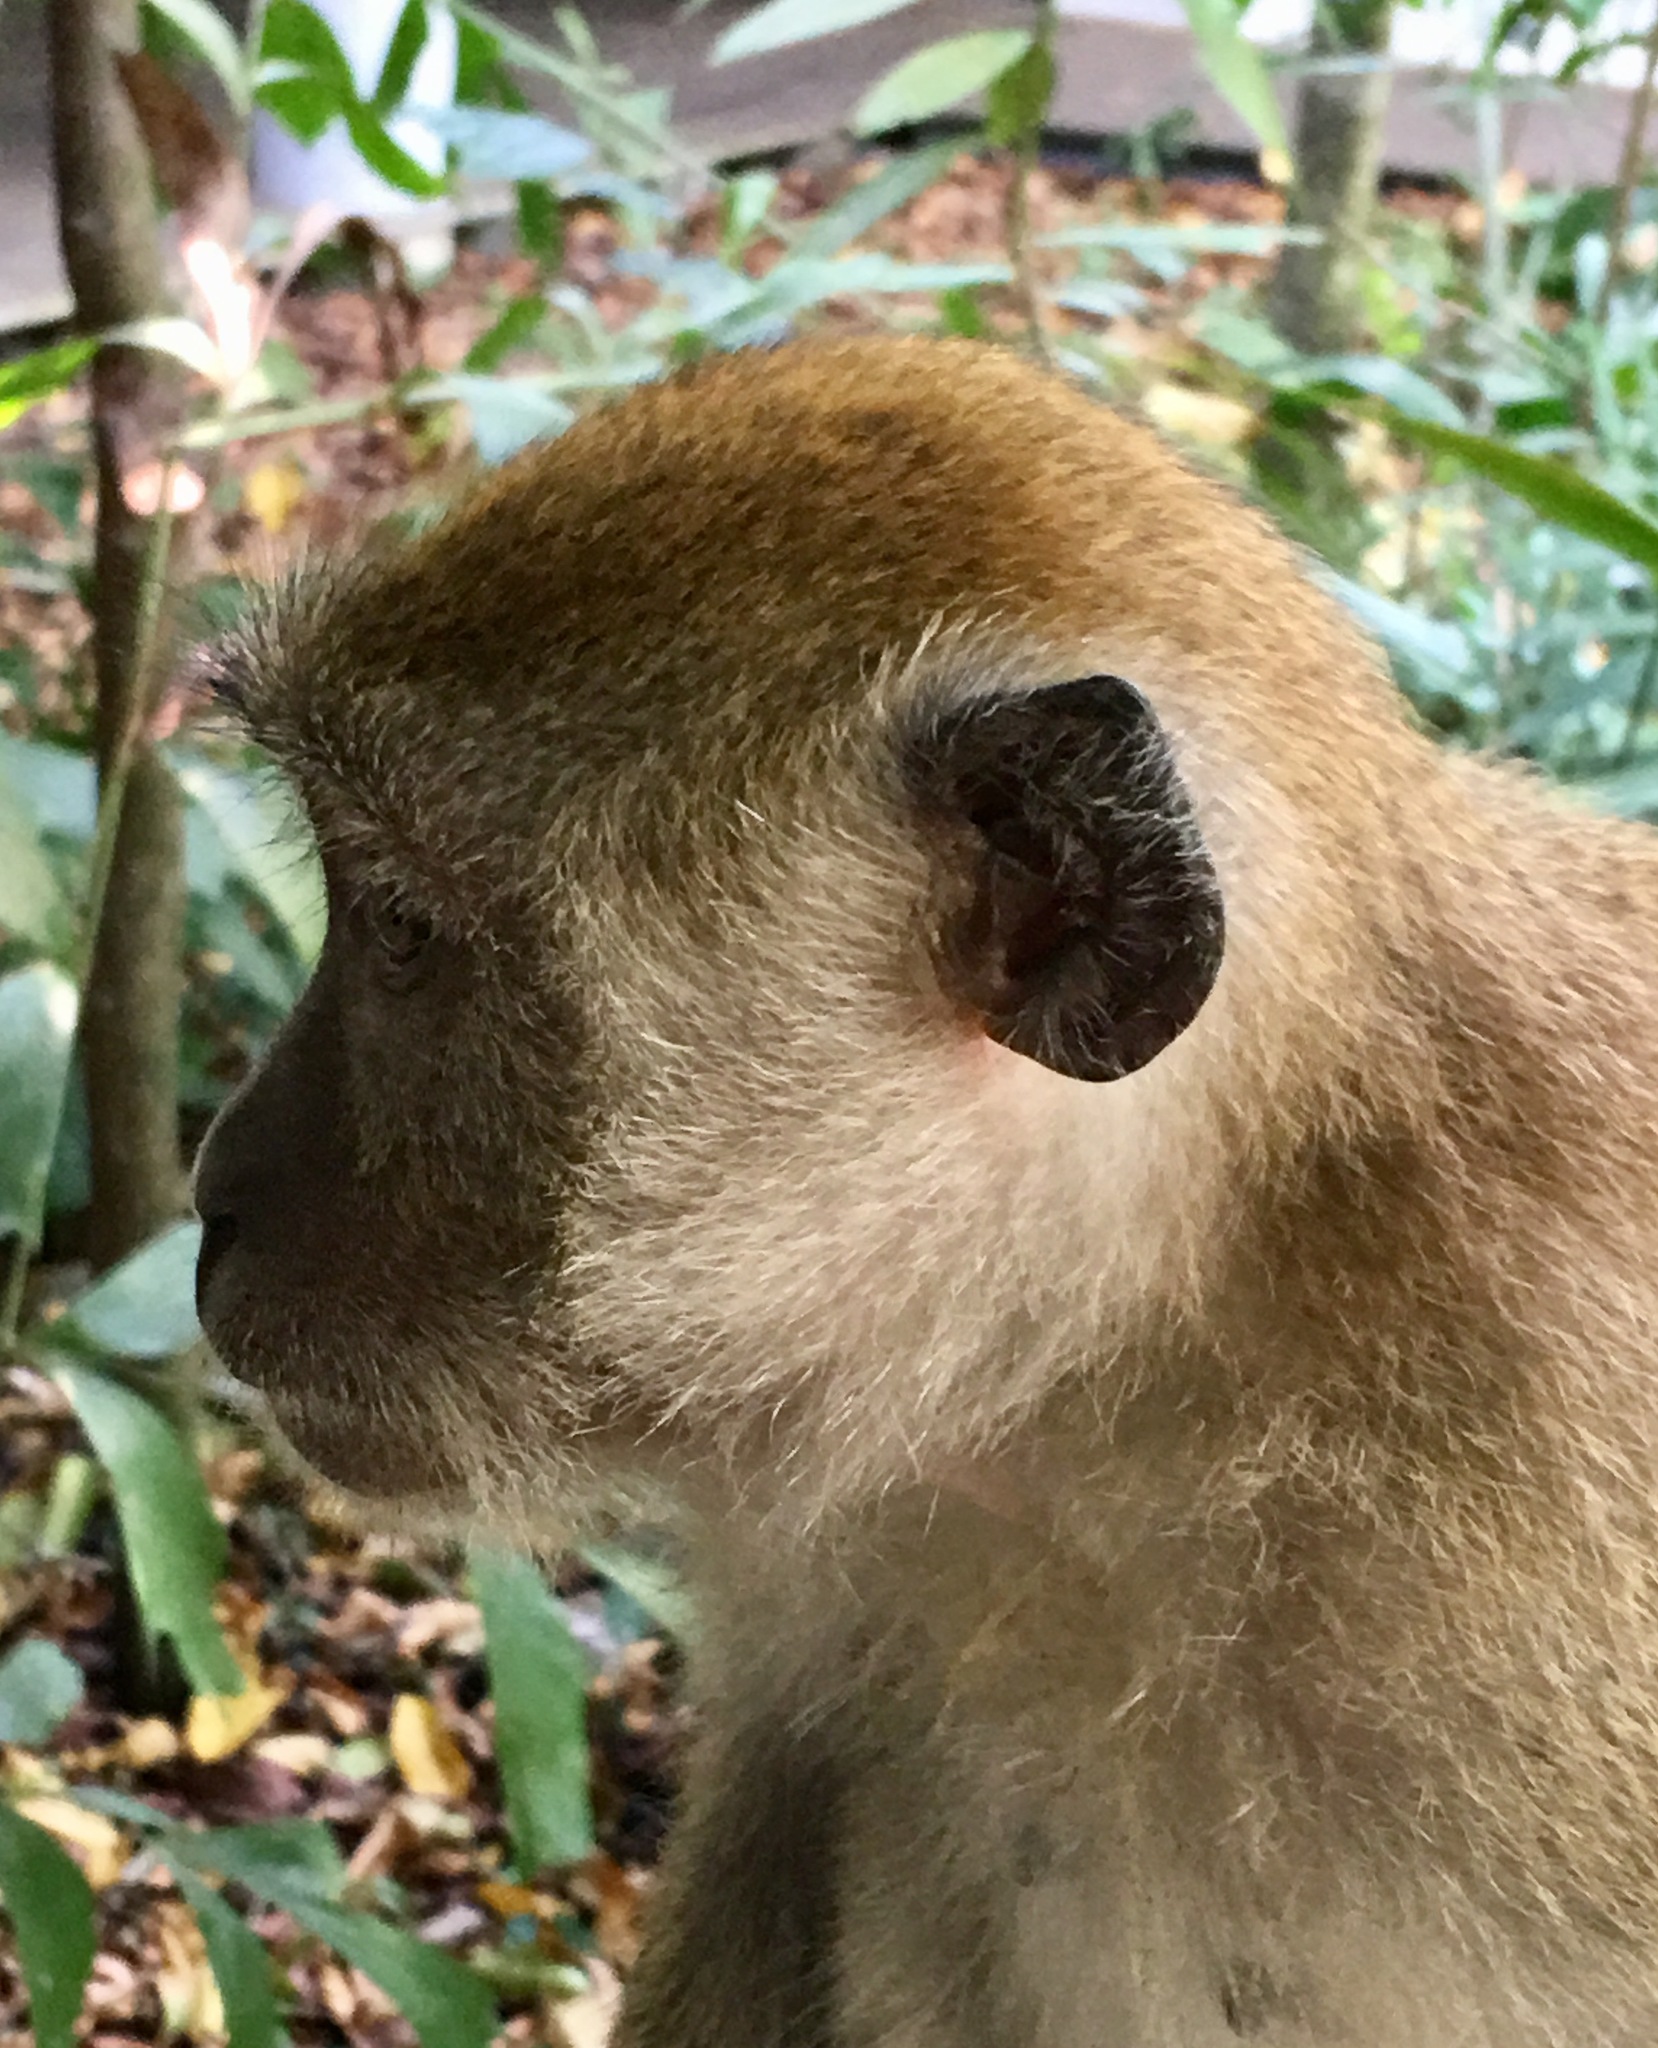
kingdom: Animalia
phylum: Chordata
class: Mammalia
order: Primates
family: Cercopithecidae
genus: Macaca
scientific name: Macaca fascicularis
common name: Crab-eating macaque
